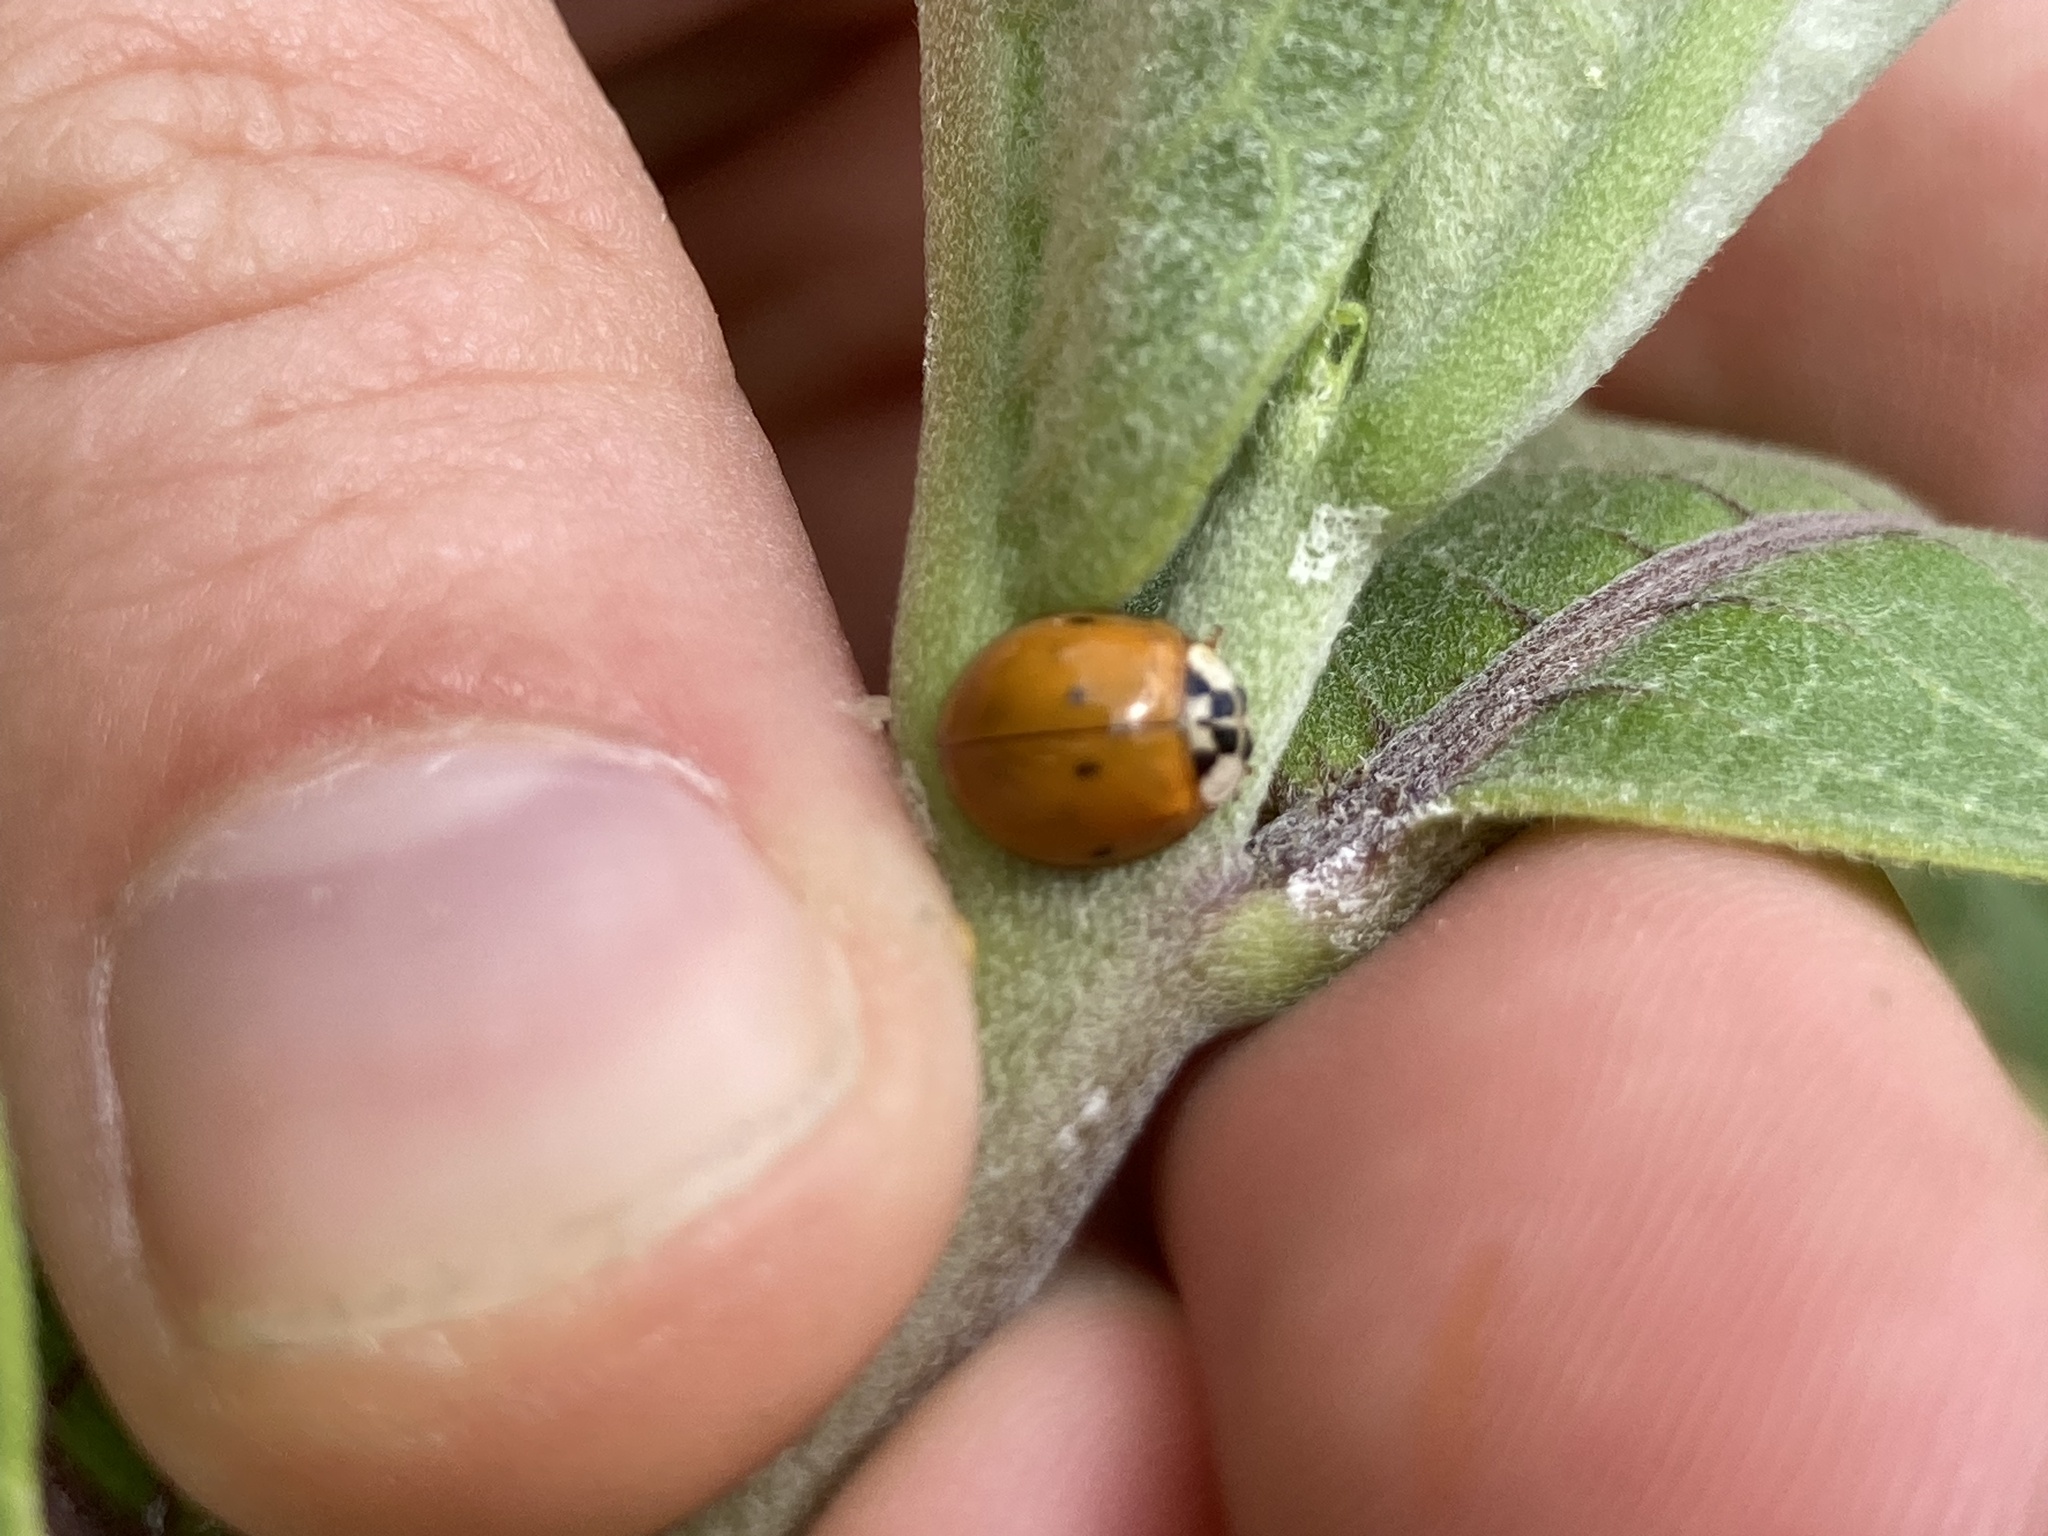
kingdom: Animalia
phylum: Arthropoda
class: Insecta
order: Coleoptera
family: Coccinellidae
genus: Harmonia
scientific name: Harmonia axyridis
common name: Harlequin ladybird
